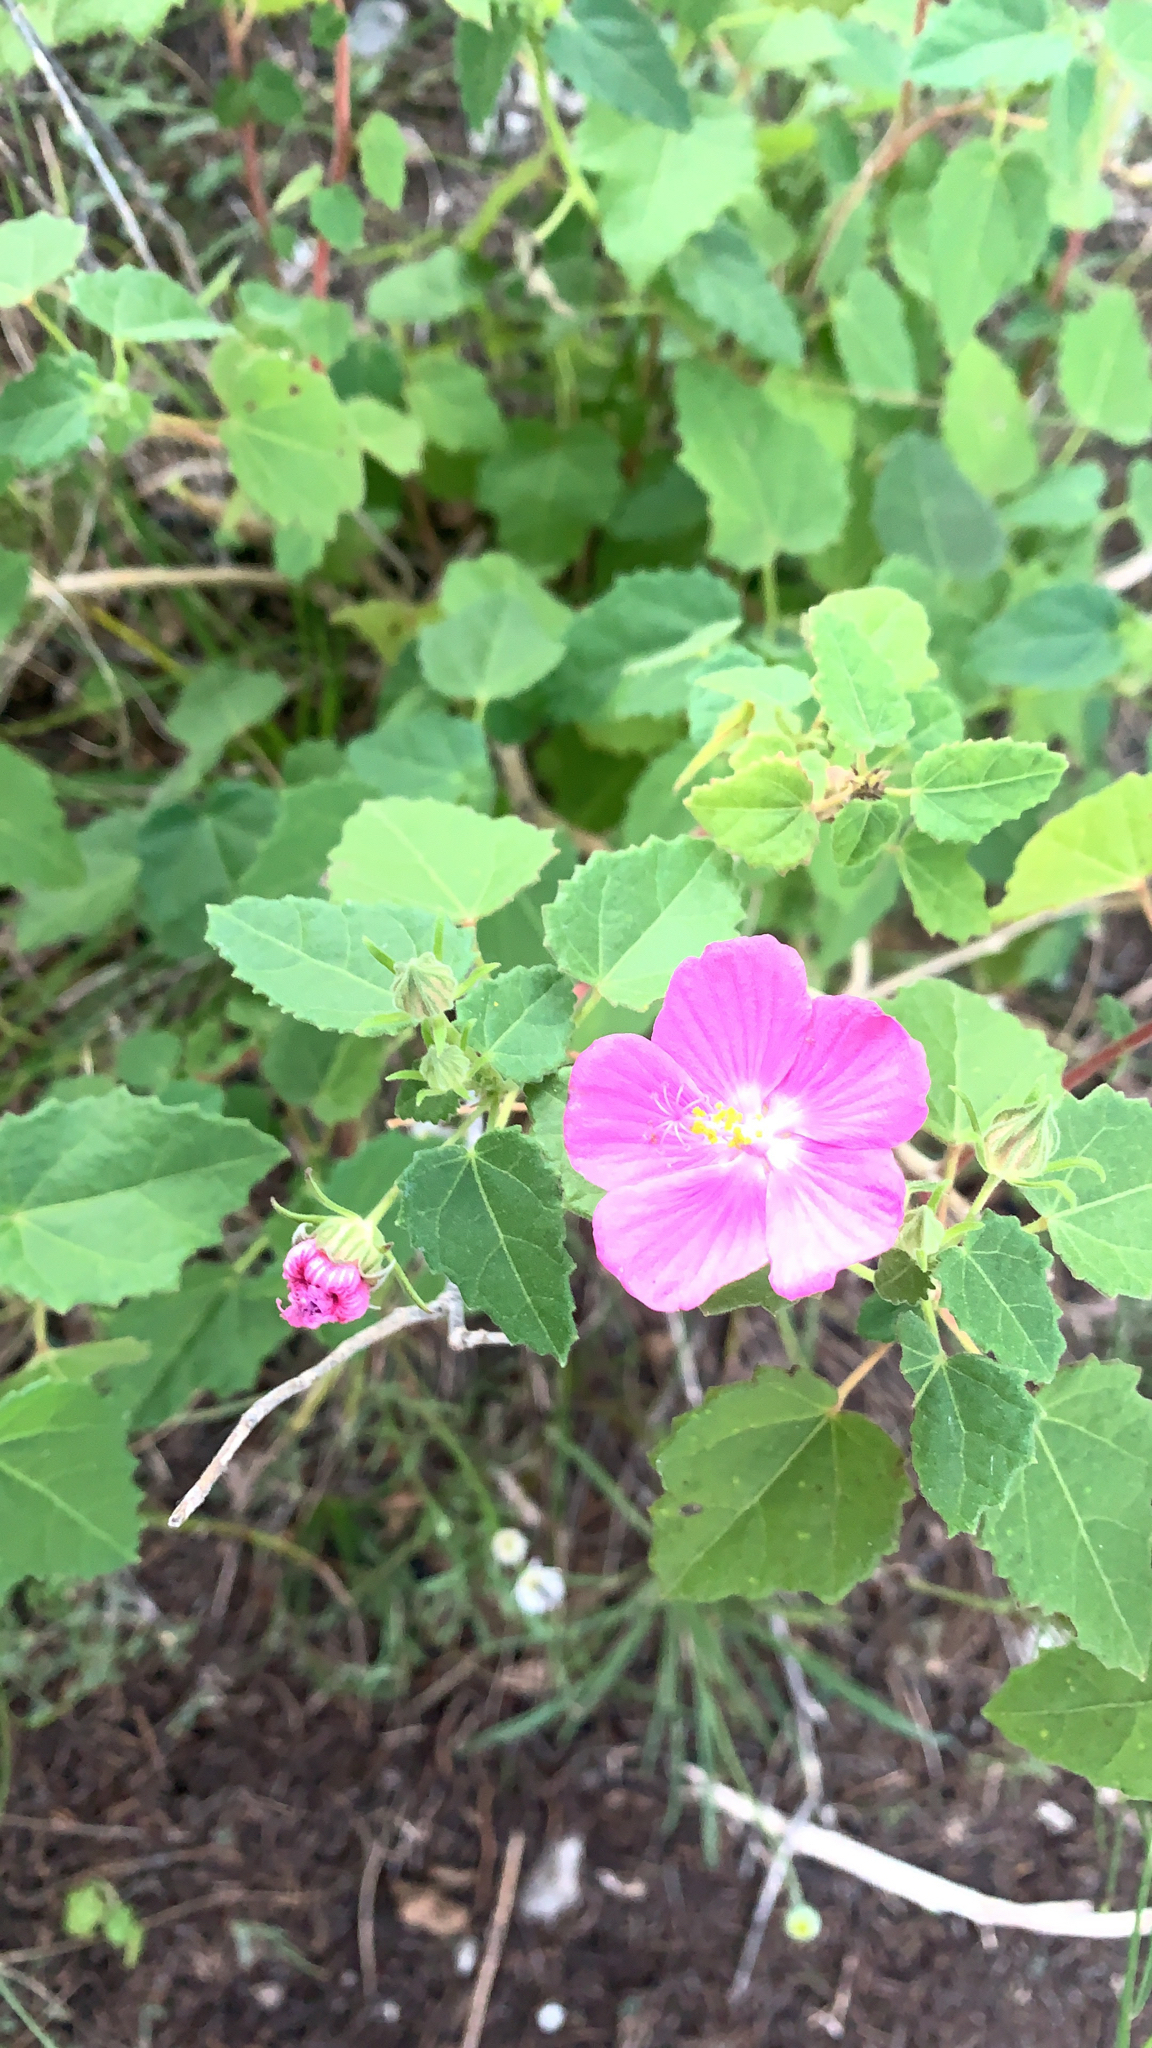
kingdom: Plantae
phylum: Tracheophyta
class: Magnoliopsida
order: Malvales
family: Malvaceae
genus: Pavonia
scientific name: Pavonia lasiopetala
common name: Texas swamp-mallow
